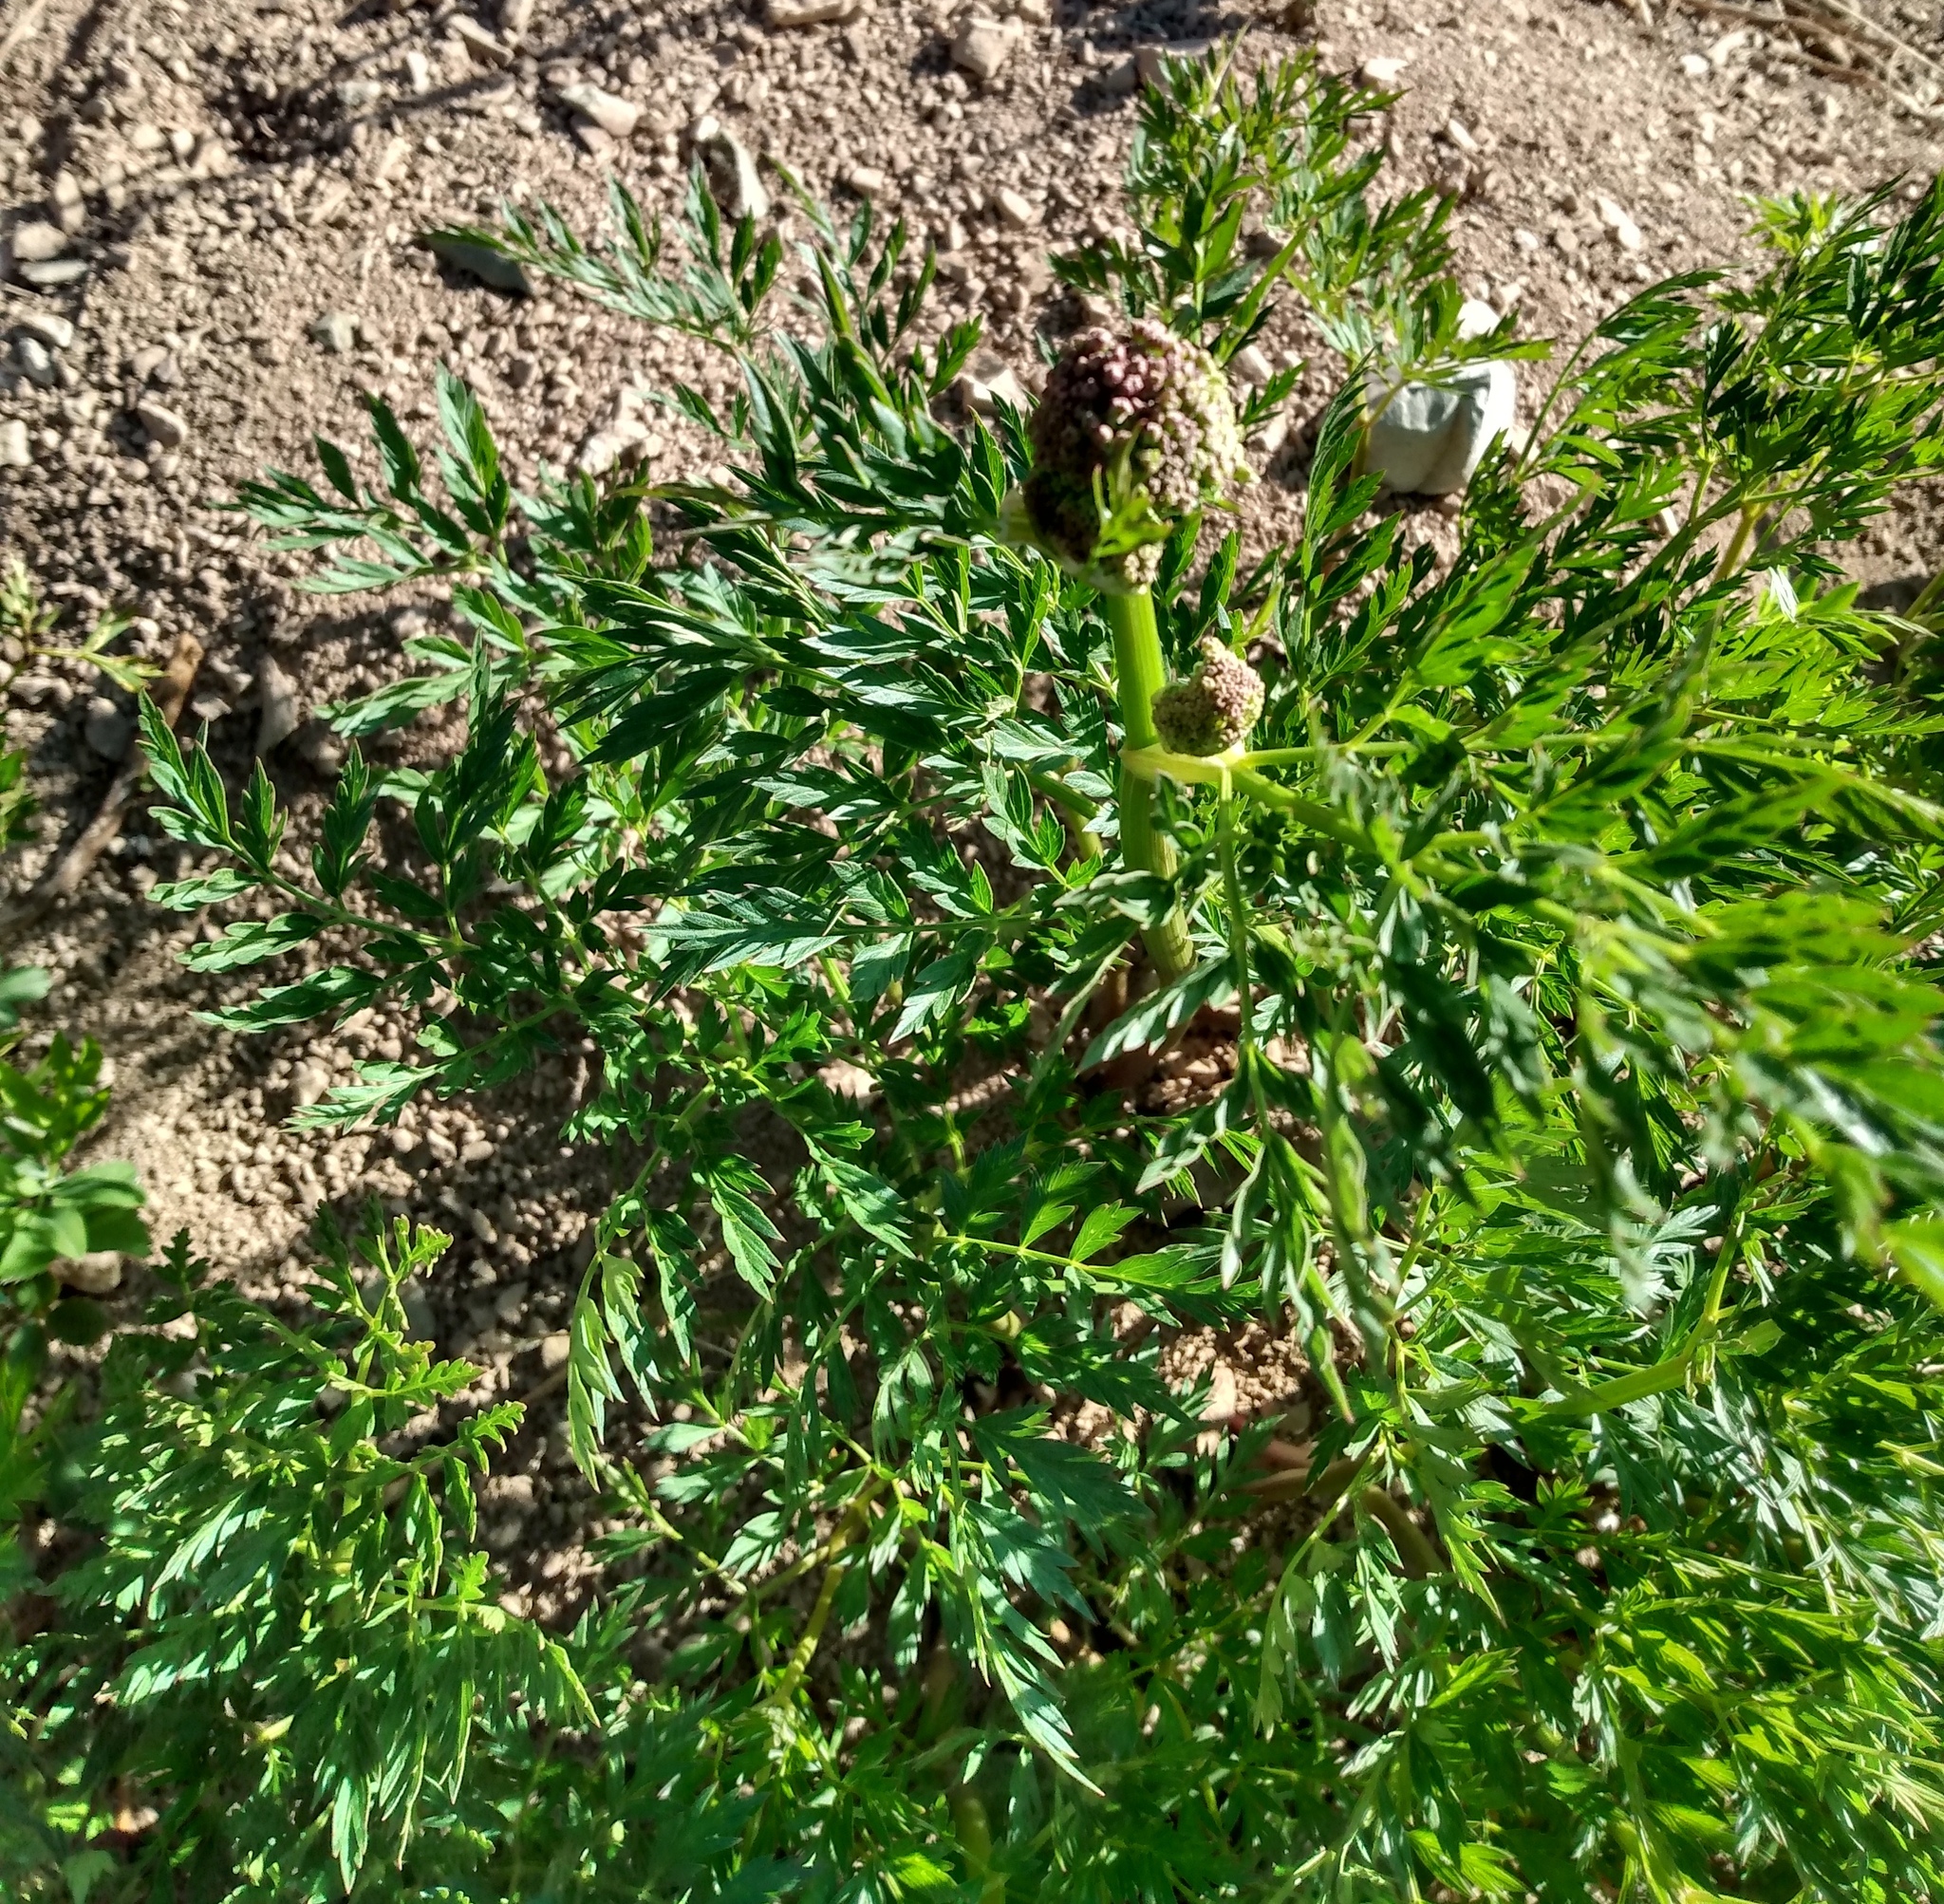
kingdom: Plantae
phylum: Tracheophyta
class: Magnoliopsida
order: Apiales
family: Apiaceae
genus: Ligusticum
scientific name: Ligusticum porteri
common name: Mountain lovage
